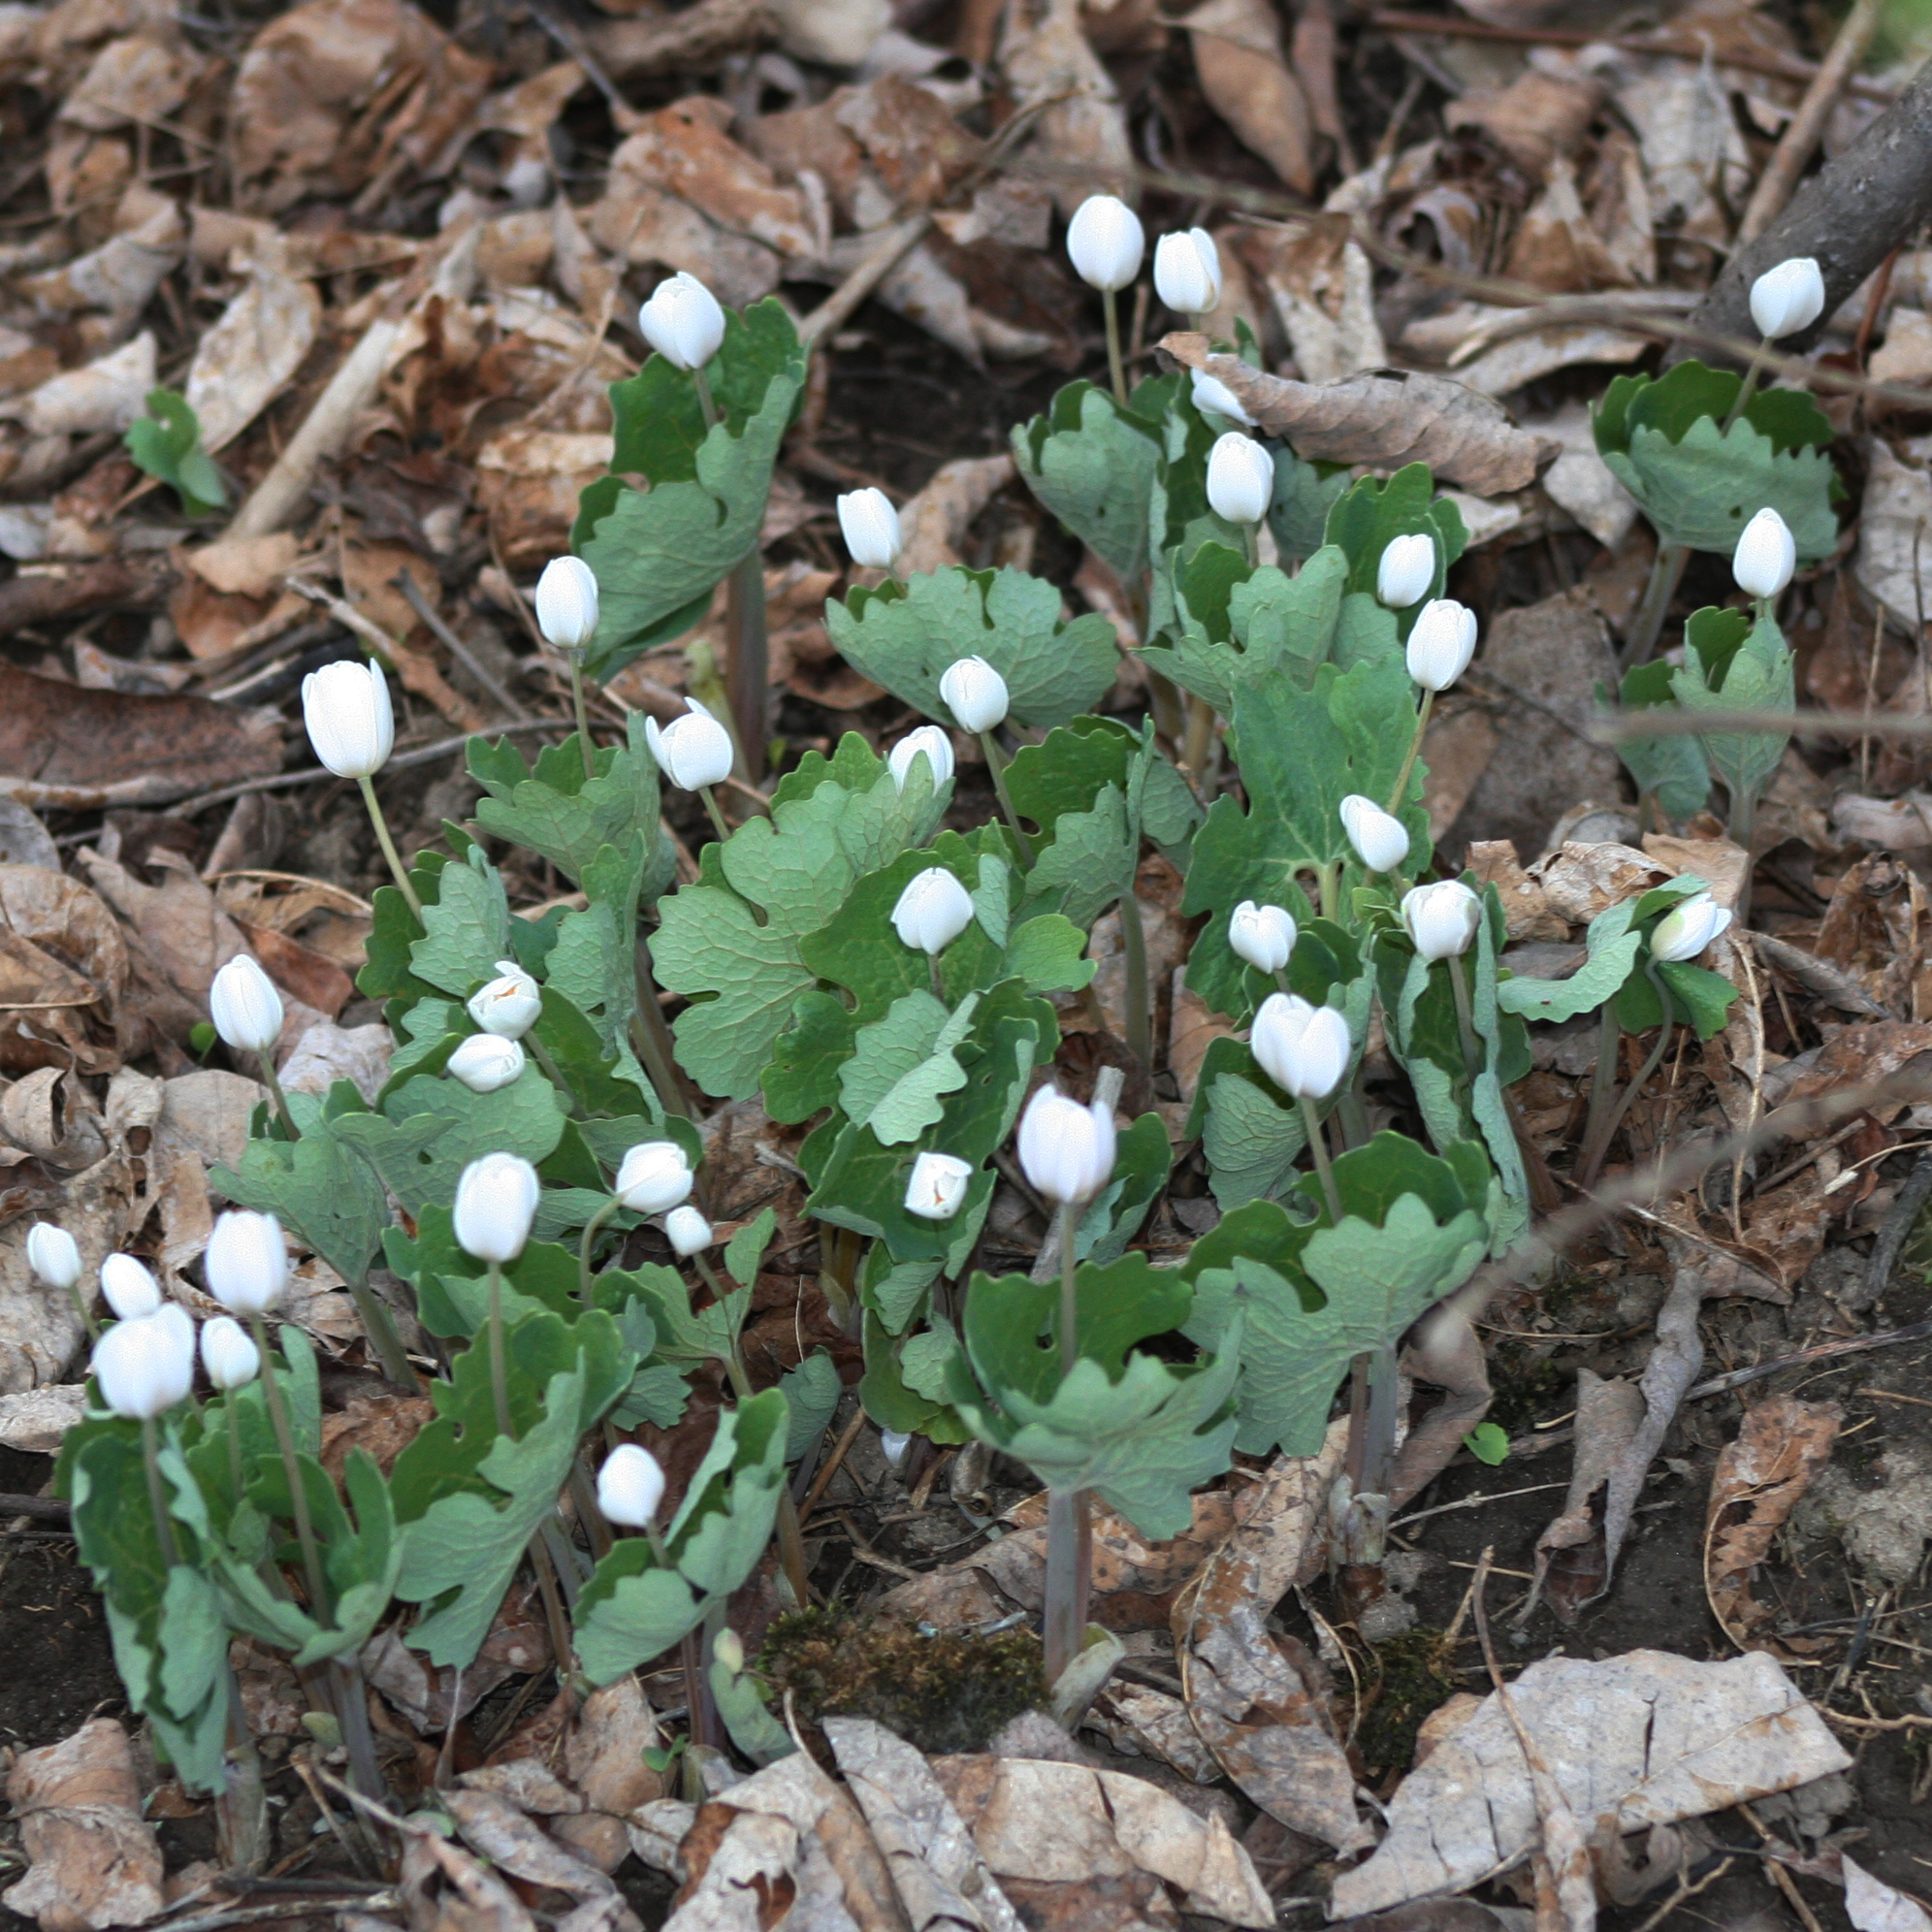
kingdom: Plantae
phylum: Tracheophyta
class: Magnoliopsida
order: Ranunculales
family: Papaveraceae
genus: Sanguinaria
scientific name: Sanguinaria canadensis
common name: Bloodroot
